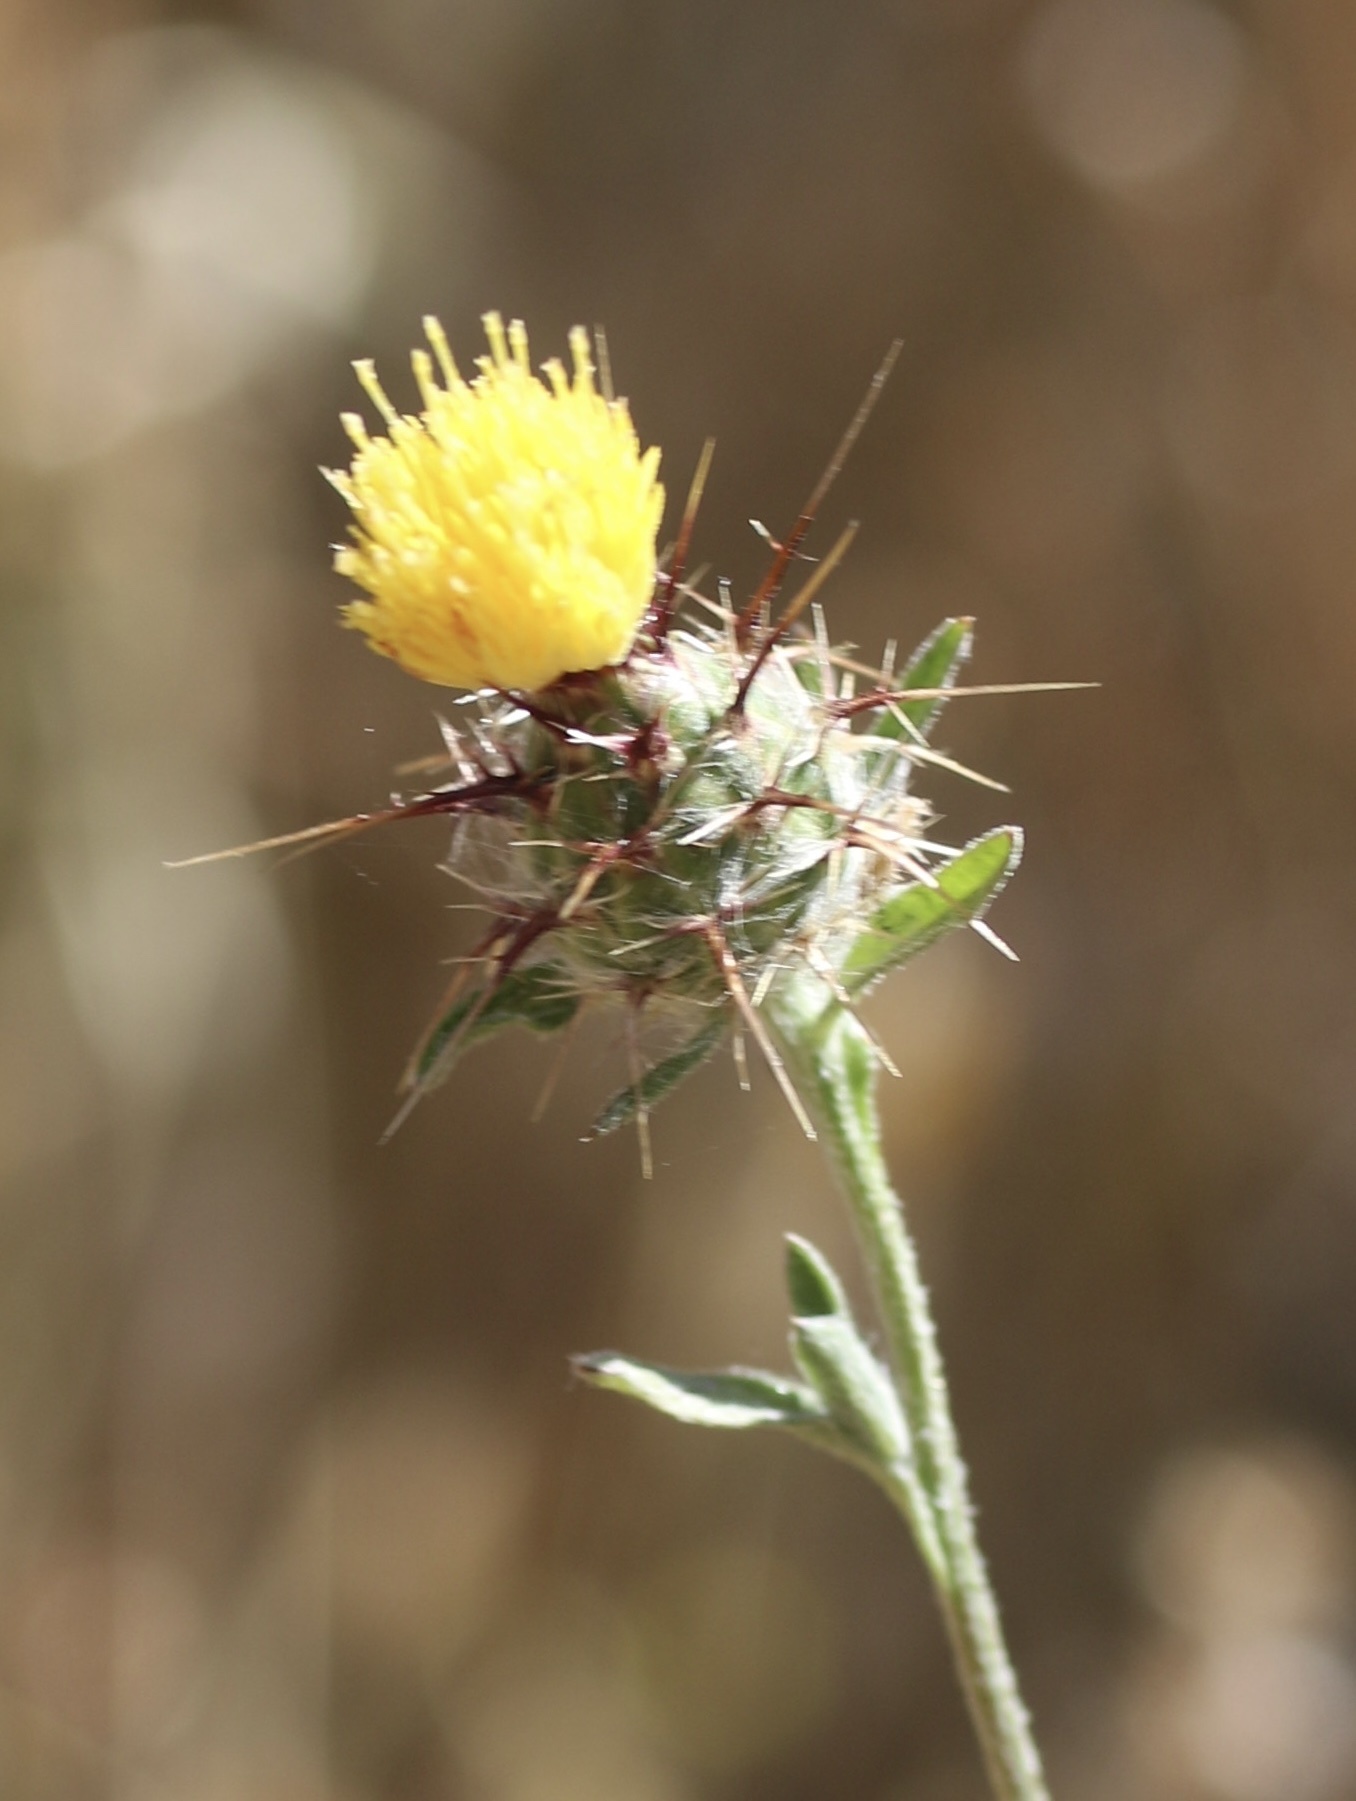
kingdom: Plantae
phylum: Tracheophyta
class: Magnoliopsida
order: Asterales
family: Asteraceae
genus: Centaurea
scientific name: Centaurea melitensis
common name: Maltese star-thistle
